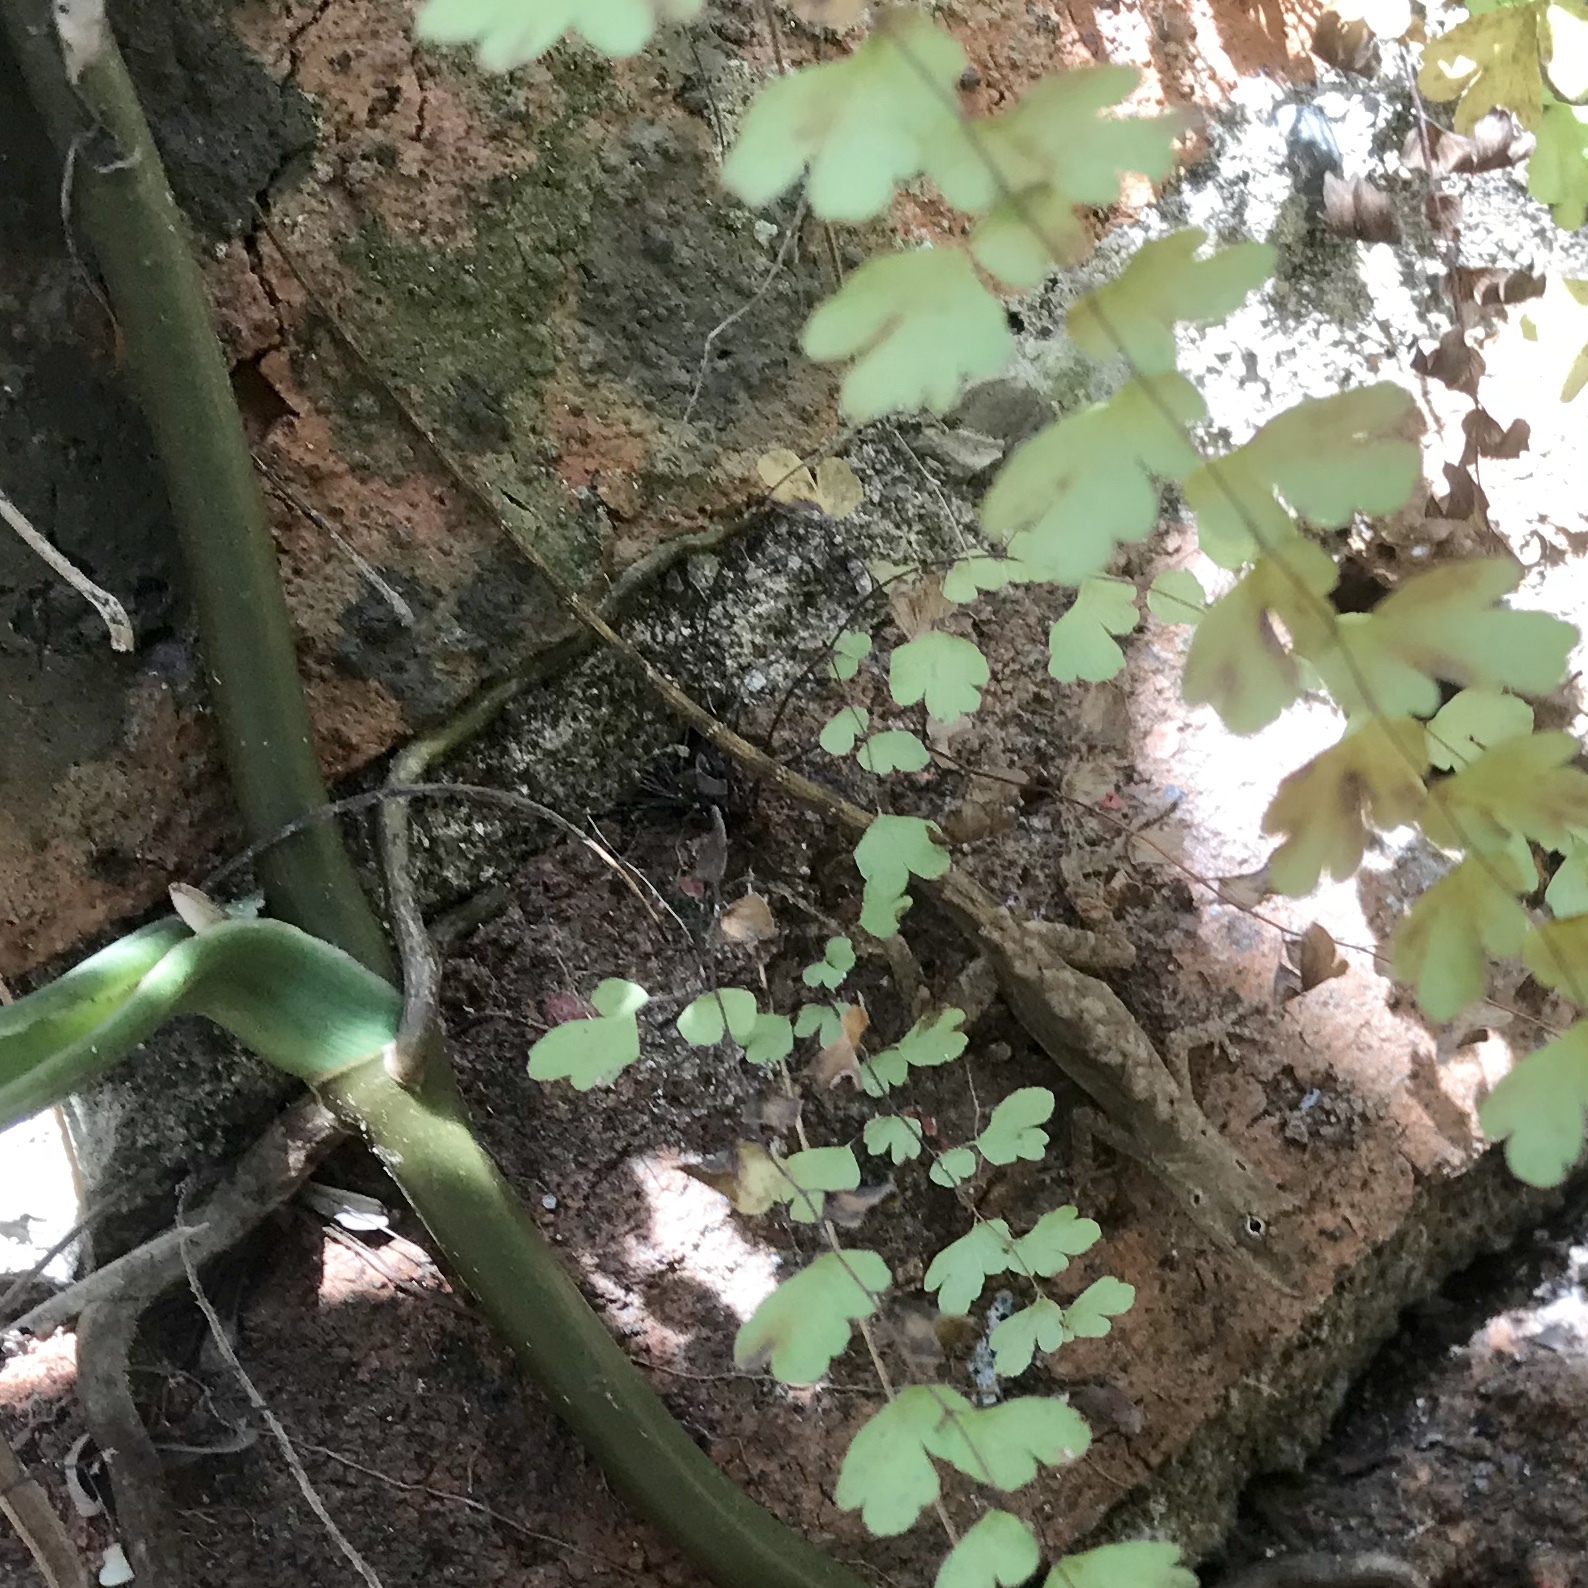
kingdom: Animalia
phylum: Chordata
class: Squamata
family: Dactyloidae
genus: Anolis
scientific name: Anolis nebulosus
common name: Clouded anole
